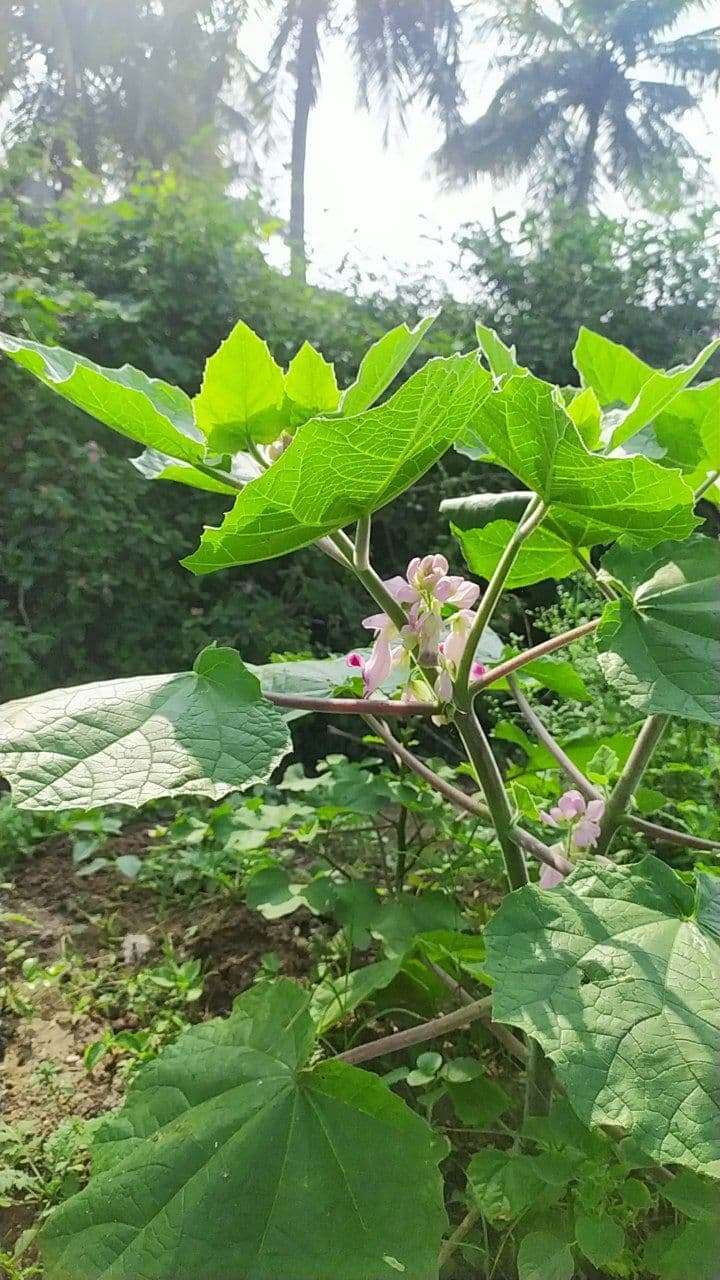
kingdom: Plantae
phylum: Tracheophyta
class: Magnoliopsida
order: Lamiales
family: Martyniaceae
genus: Martynia
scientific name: Martynia annua
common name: Tiger's-claw
